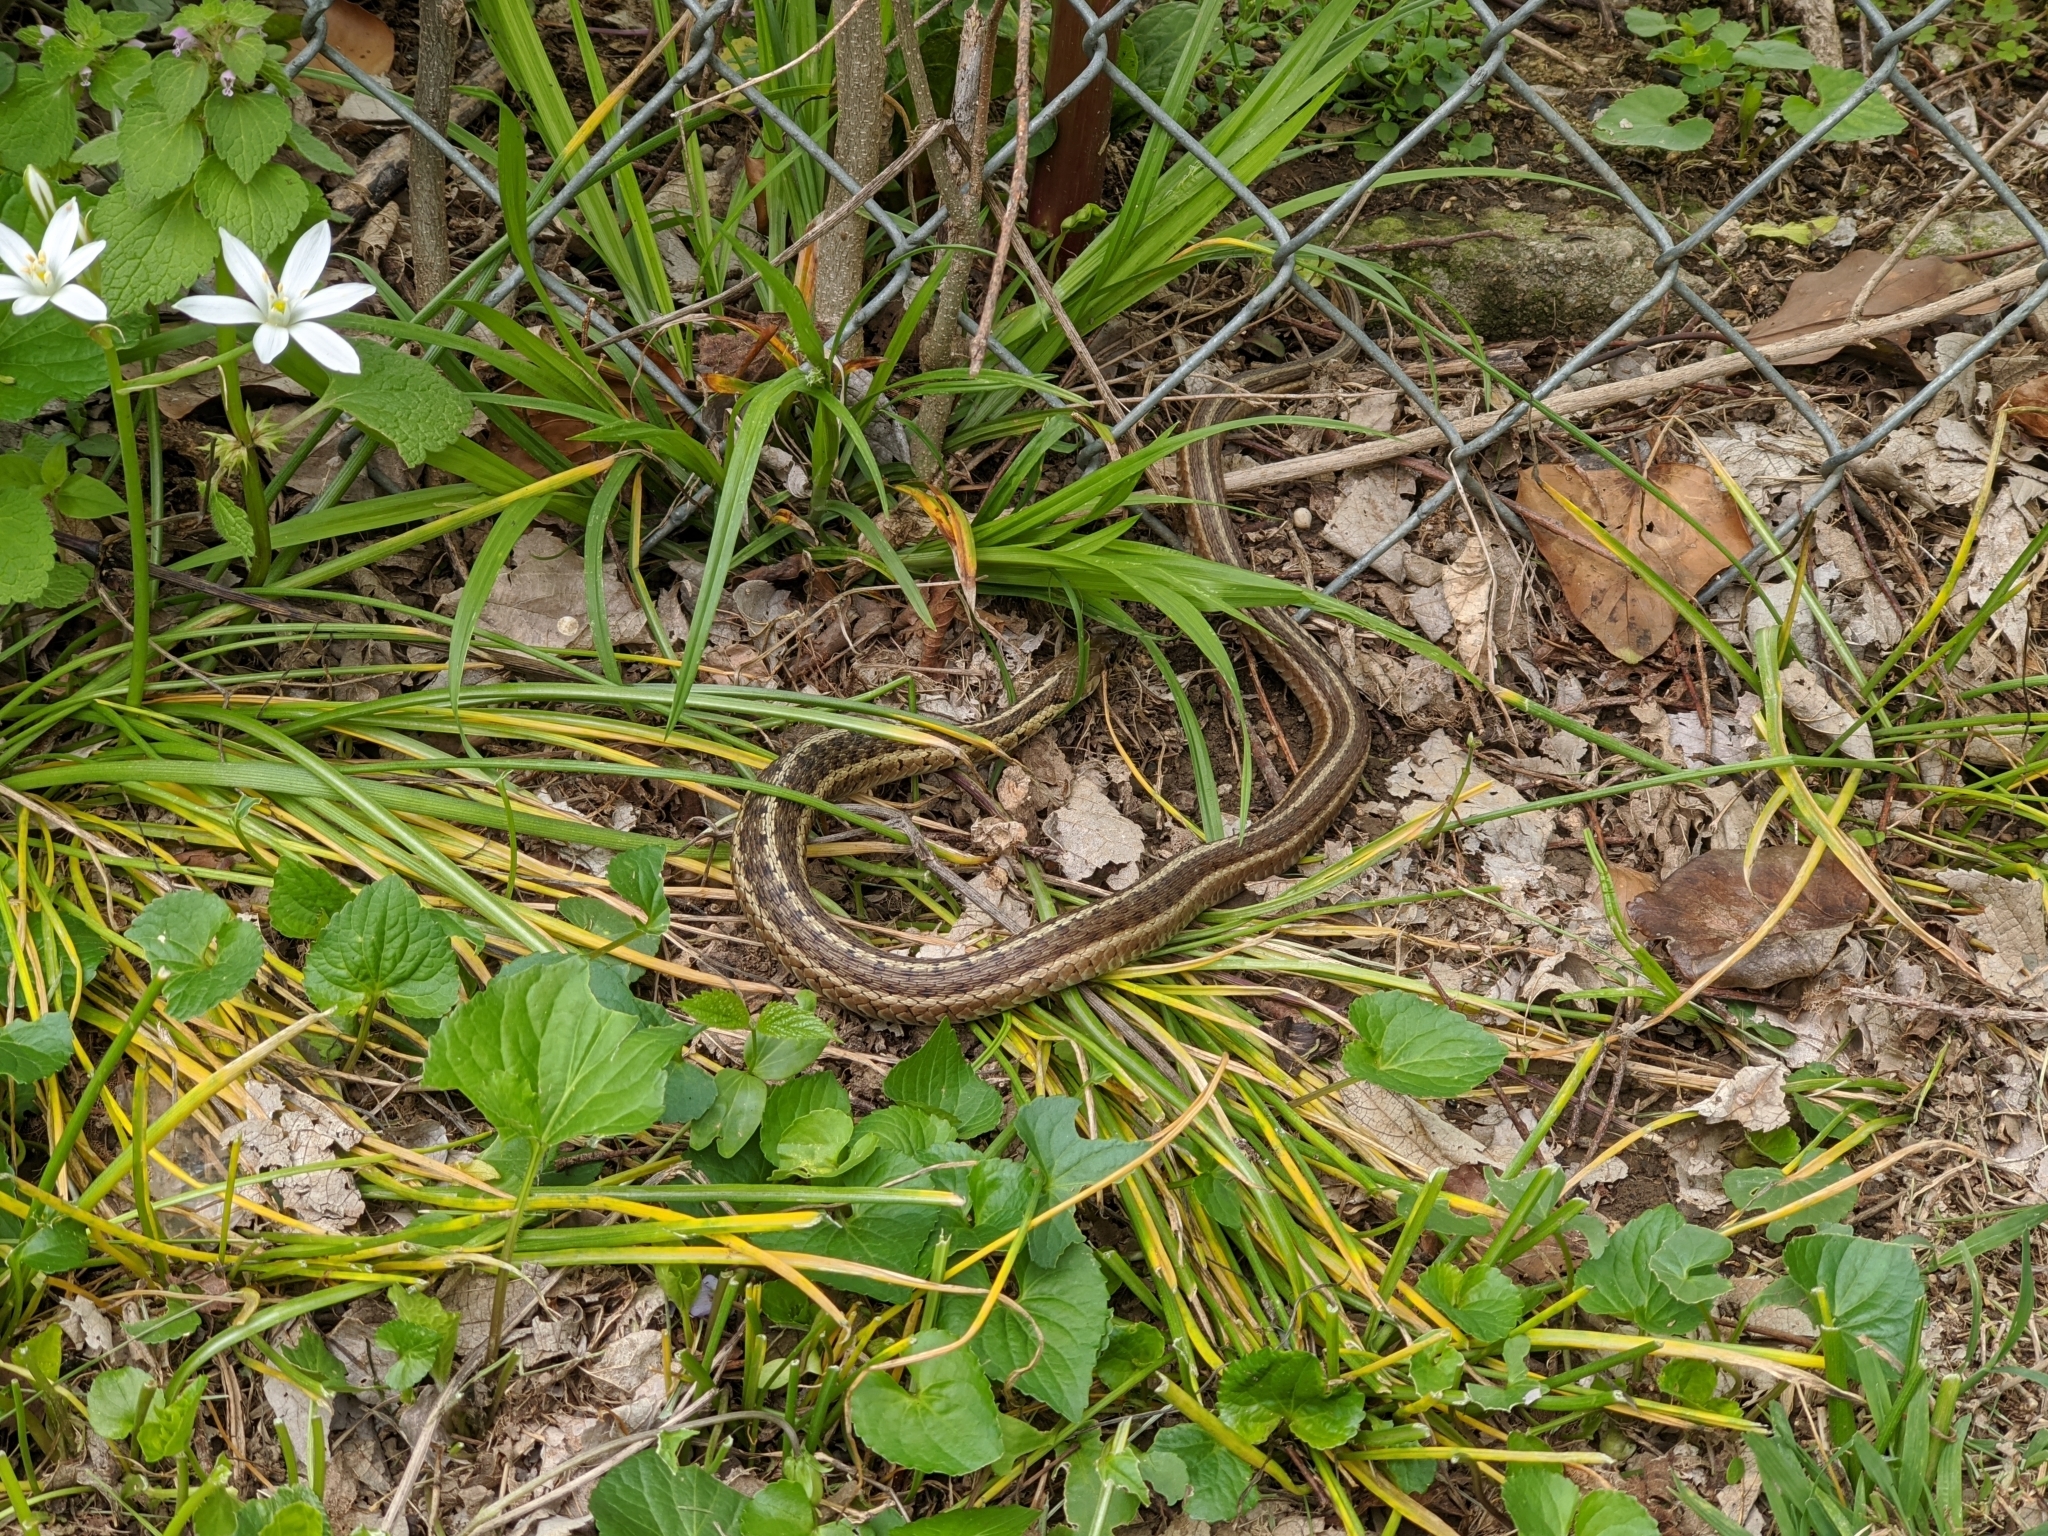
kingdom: Animalia
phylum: Chordata
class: Squamata
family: Colubridae
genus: Thamnophis
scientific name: Thamnophis sirtalis
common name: Common garter snake
